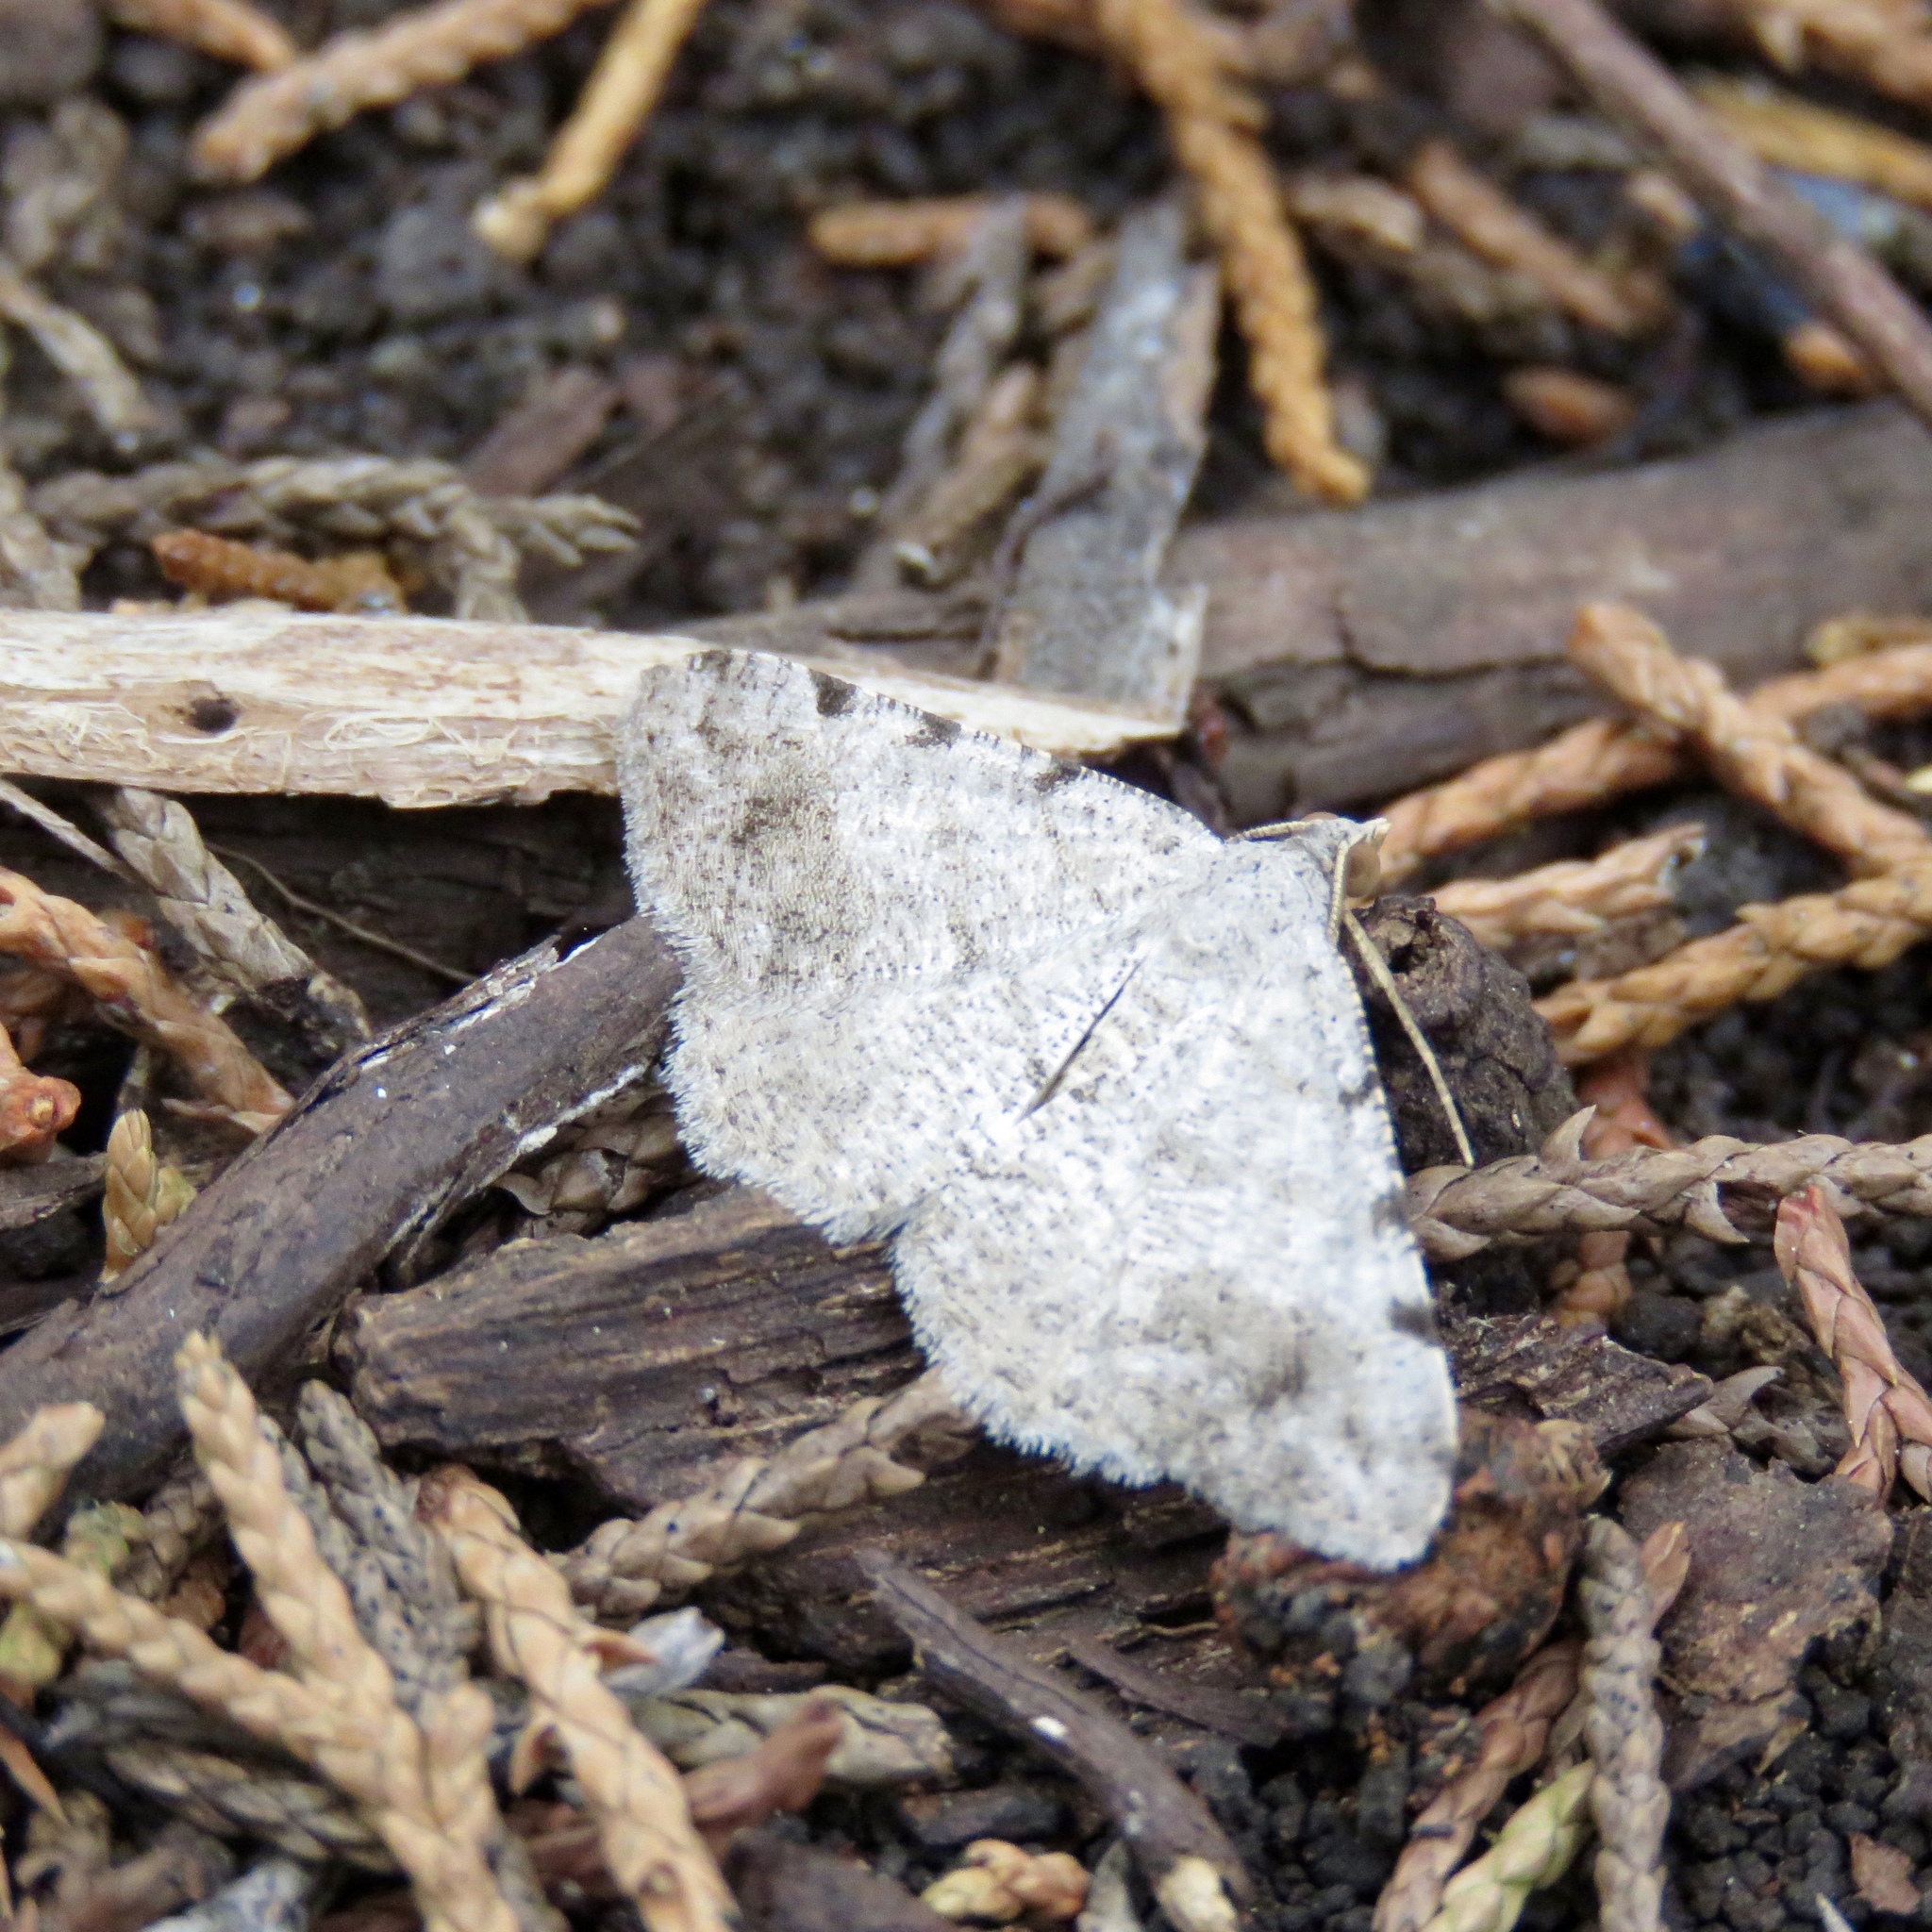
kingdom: Animalia
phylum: Arthropoda
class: Insecta
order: Lepidoptera
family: Geometridae
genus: Digrammia
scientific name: Digrammia
